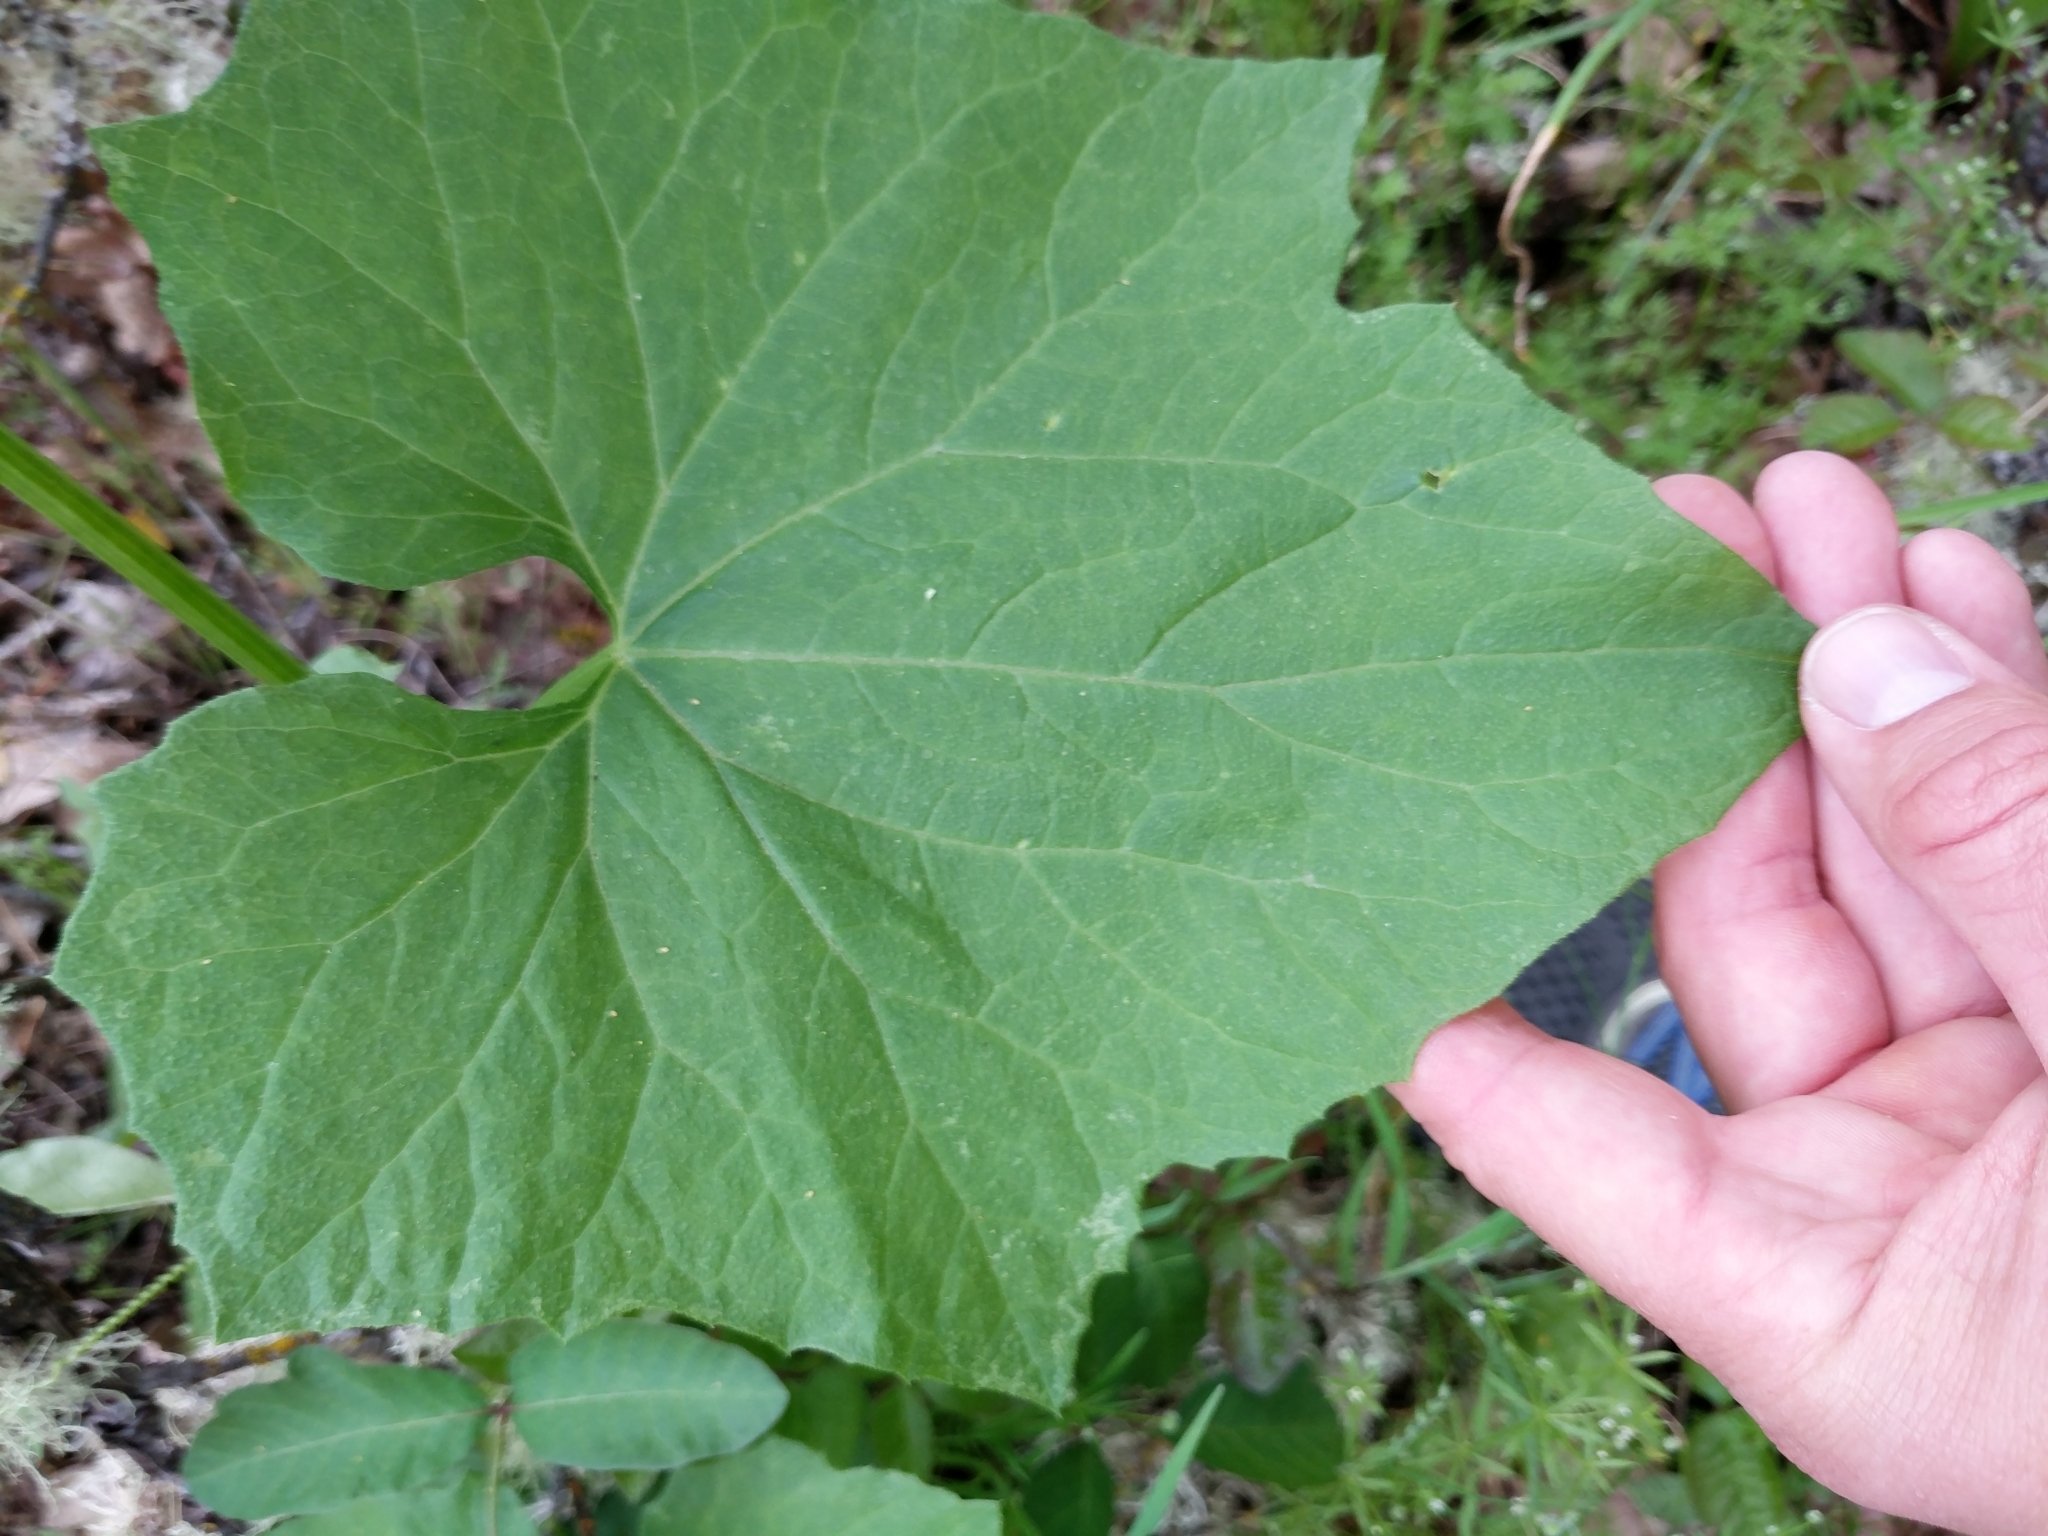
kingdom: Plantae
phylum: Tracheophyta
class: Magnoliopsida
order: Cucurbitales
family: Cucurbitaceae
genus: Marah
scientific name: Marah oregana
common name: Coastal manroot
